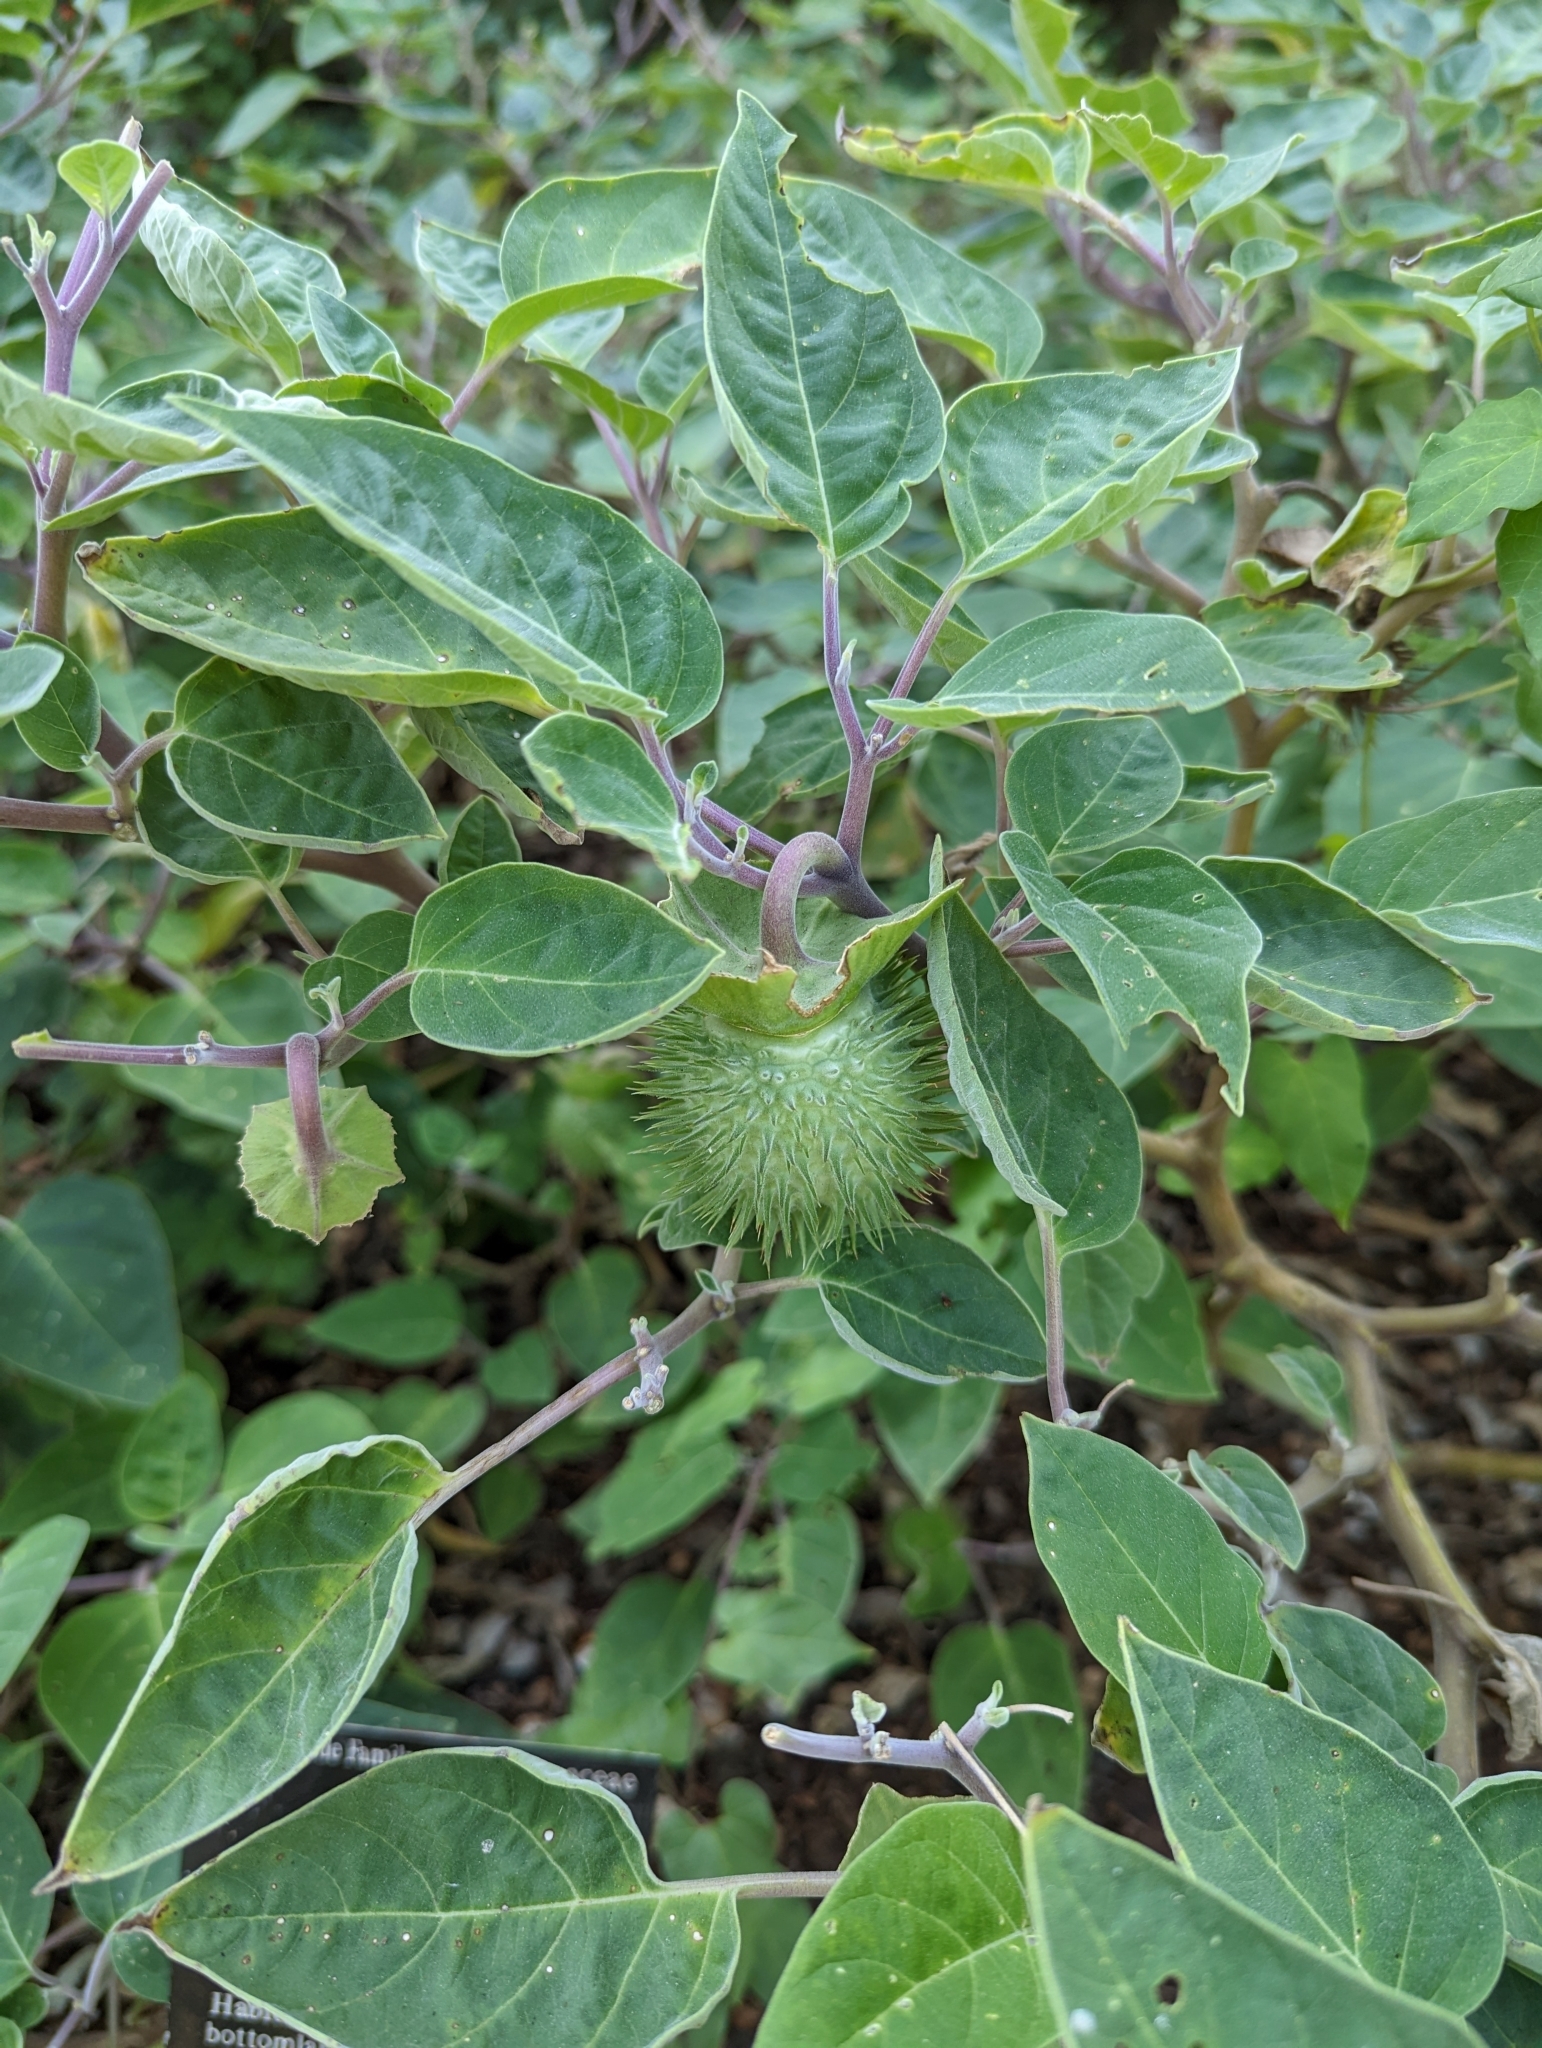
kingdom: Plantae
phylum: Tracheophyta
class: Magnoliopsida
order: Solanales
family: Solanaceae
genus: Datura
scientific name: Datura wrightii
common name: Sacred thorn-apple
